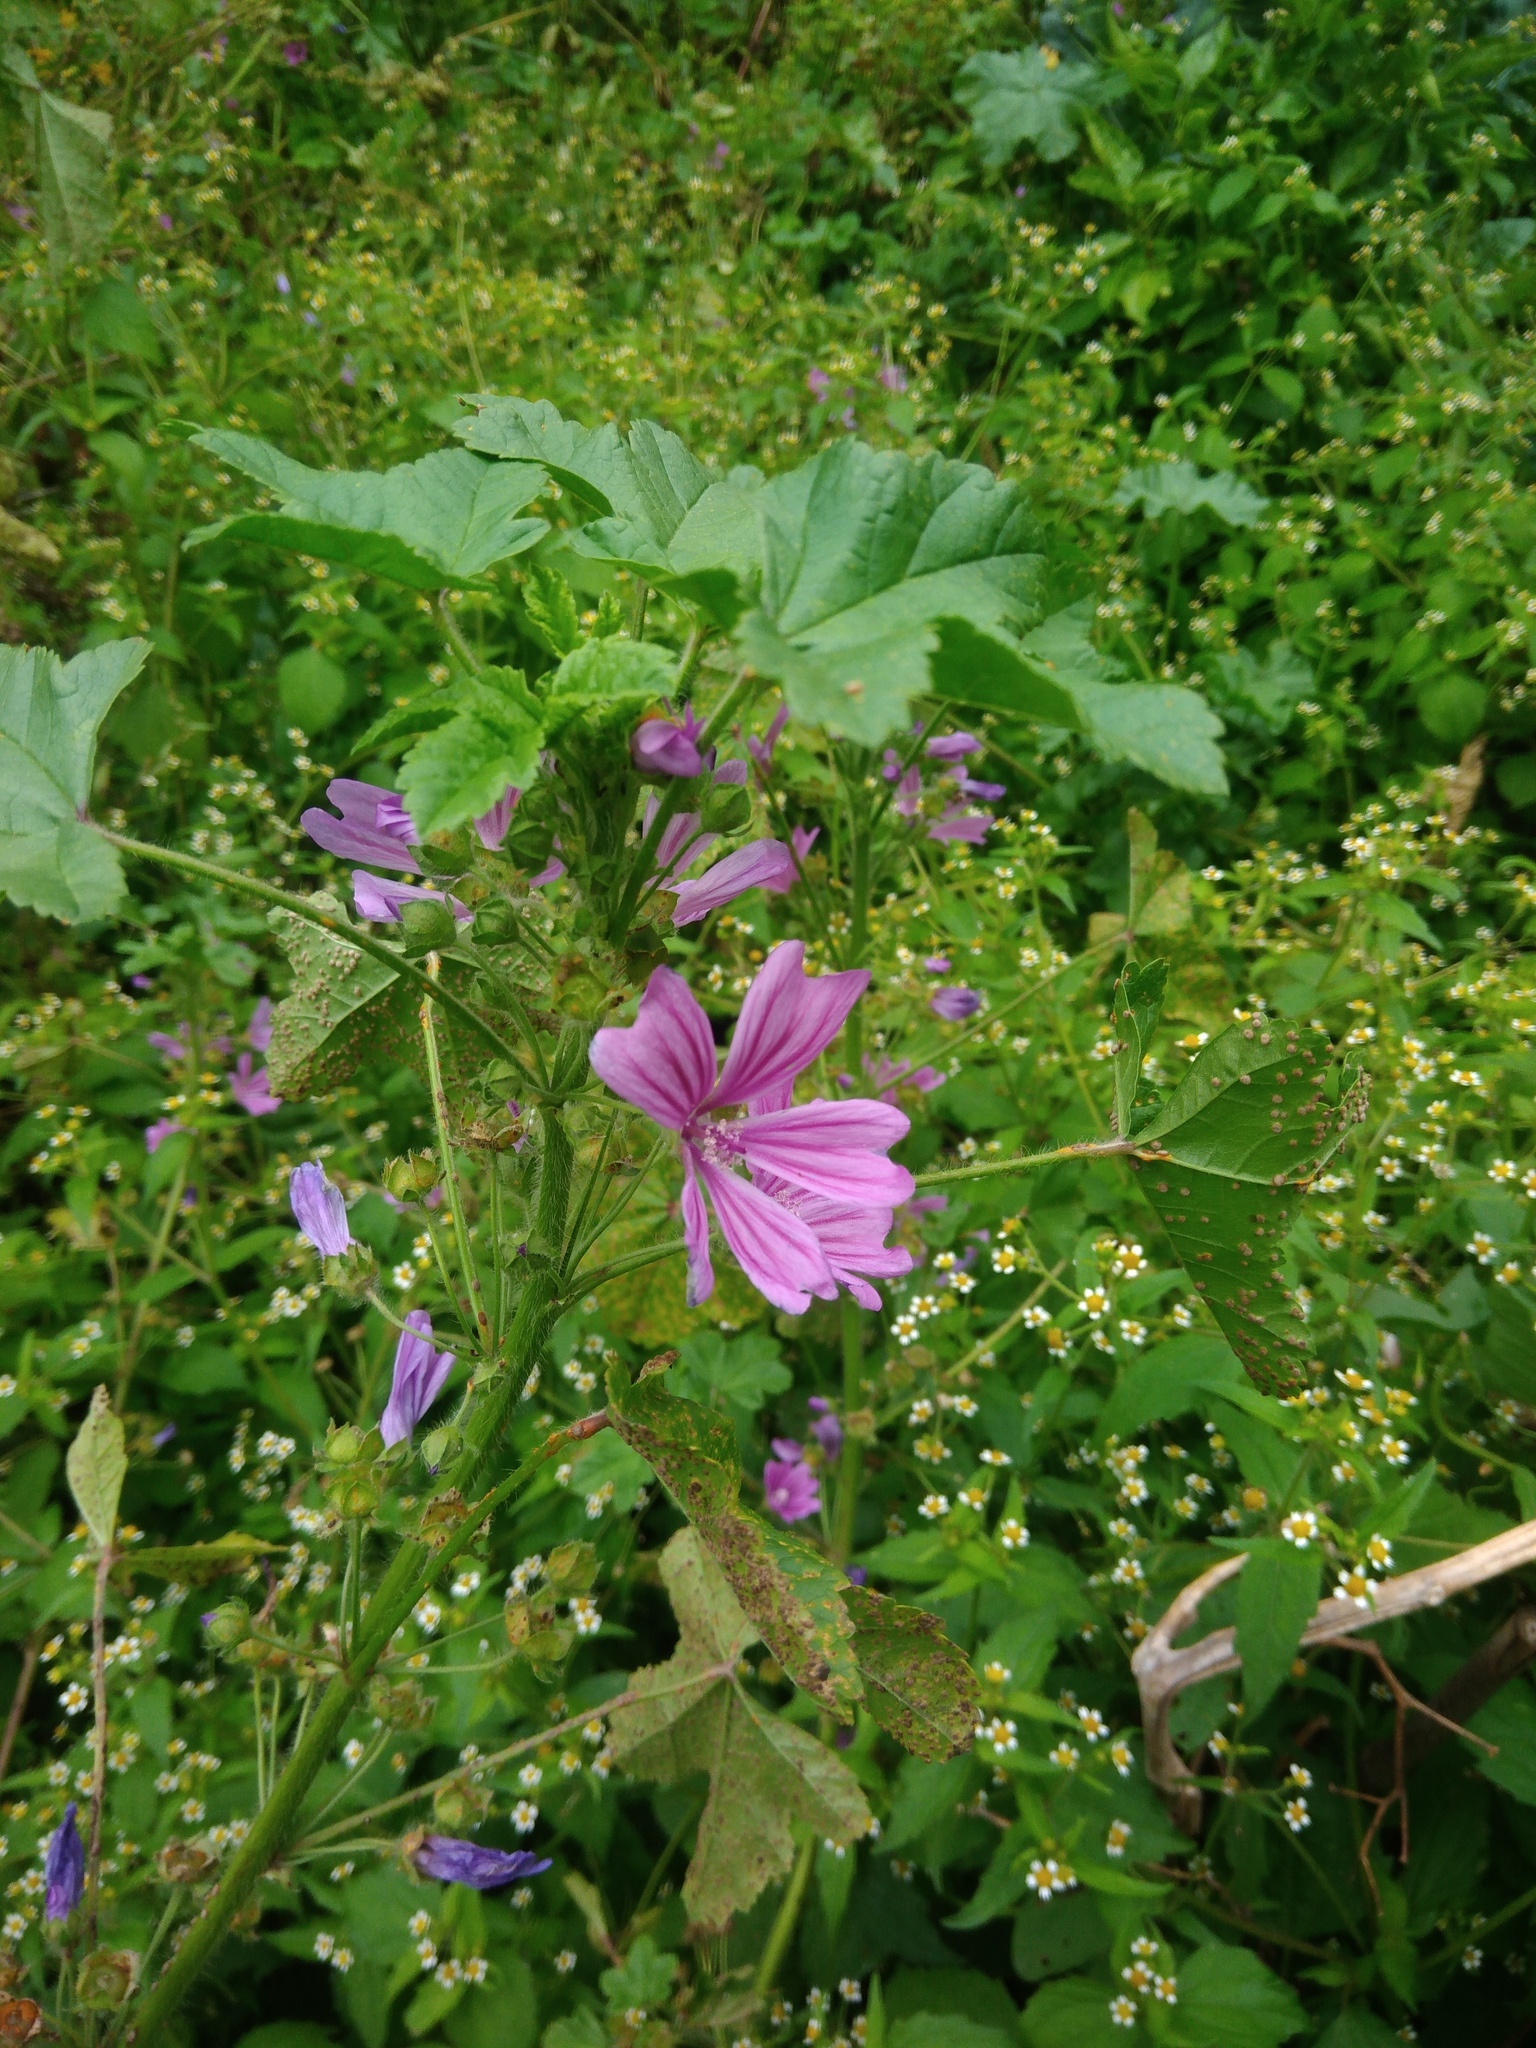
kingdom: Plantae
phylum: Tracheophyta
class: Magnoliopsida
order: Malvales
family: Malvaceae
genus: Malva
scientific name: Malva sylvestris
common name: Common mallow
